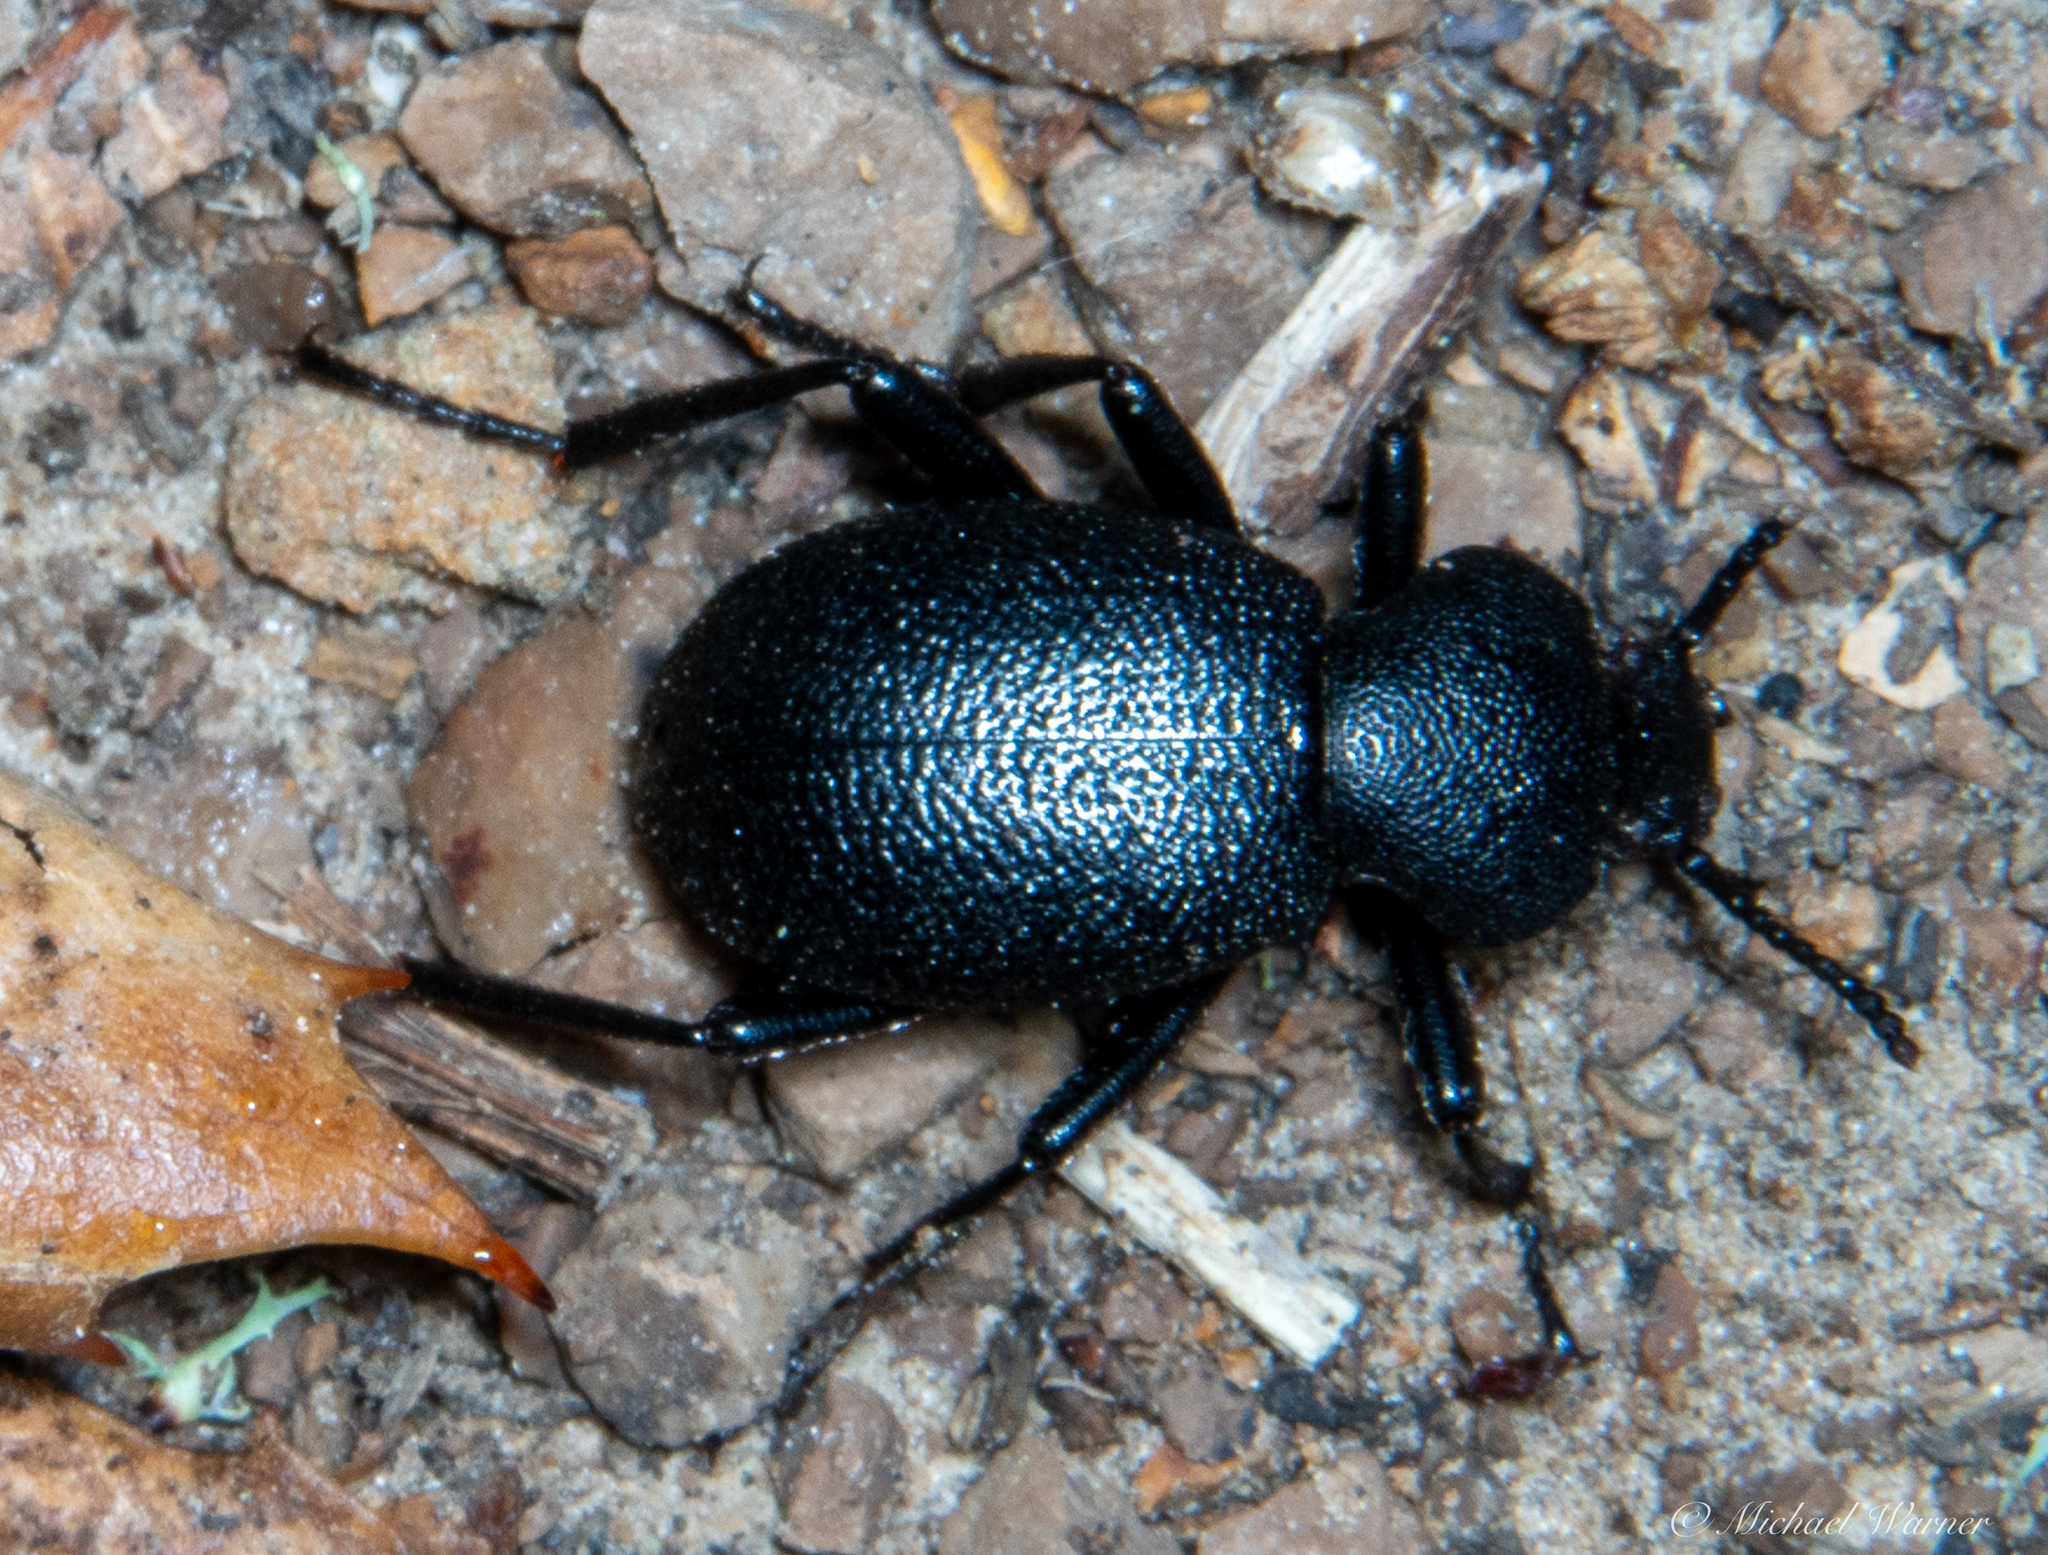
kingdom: Animalia
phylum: Arthropoda
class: Insecta
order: Coleoptera
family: Tenebrionidae
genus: Eleodes
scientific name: Eleodes cordata
